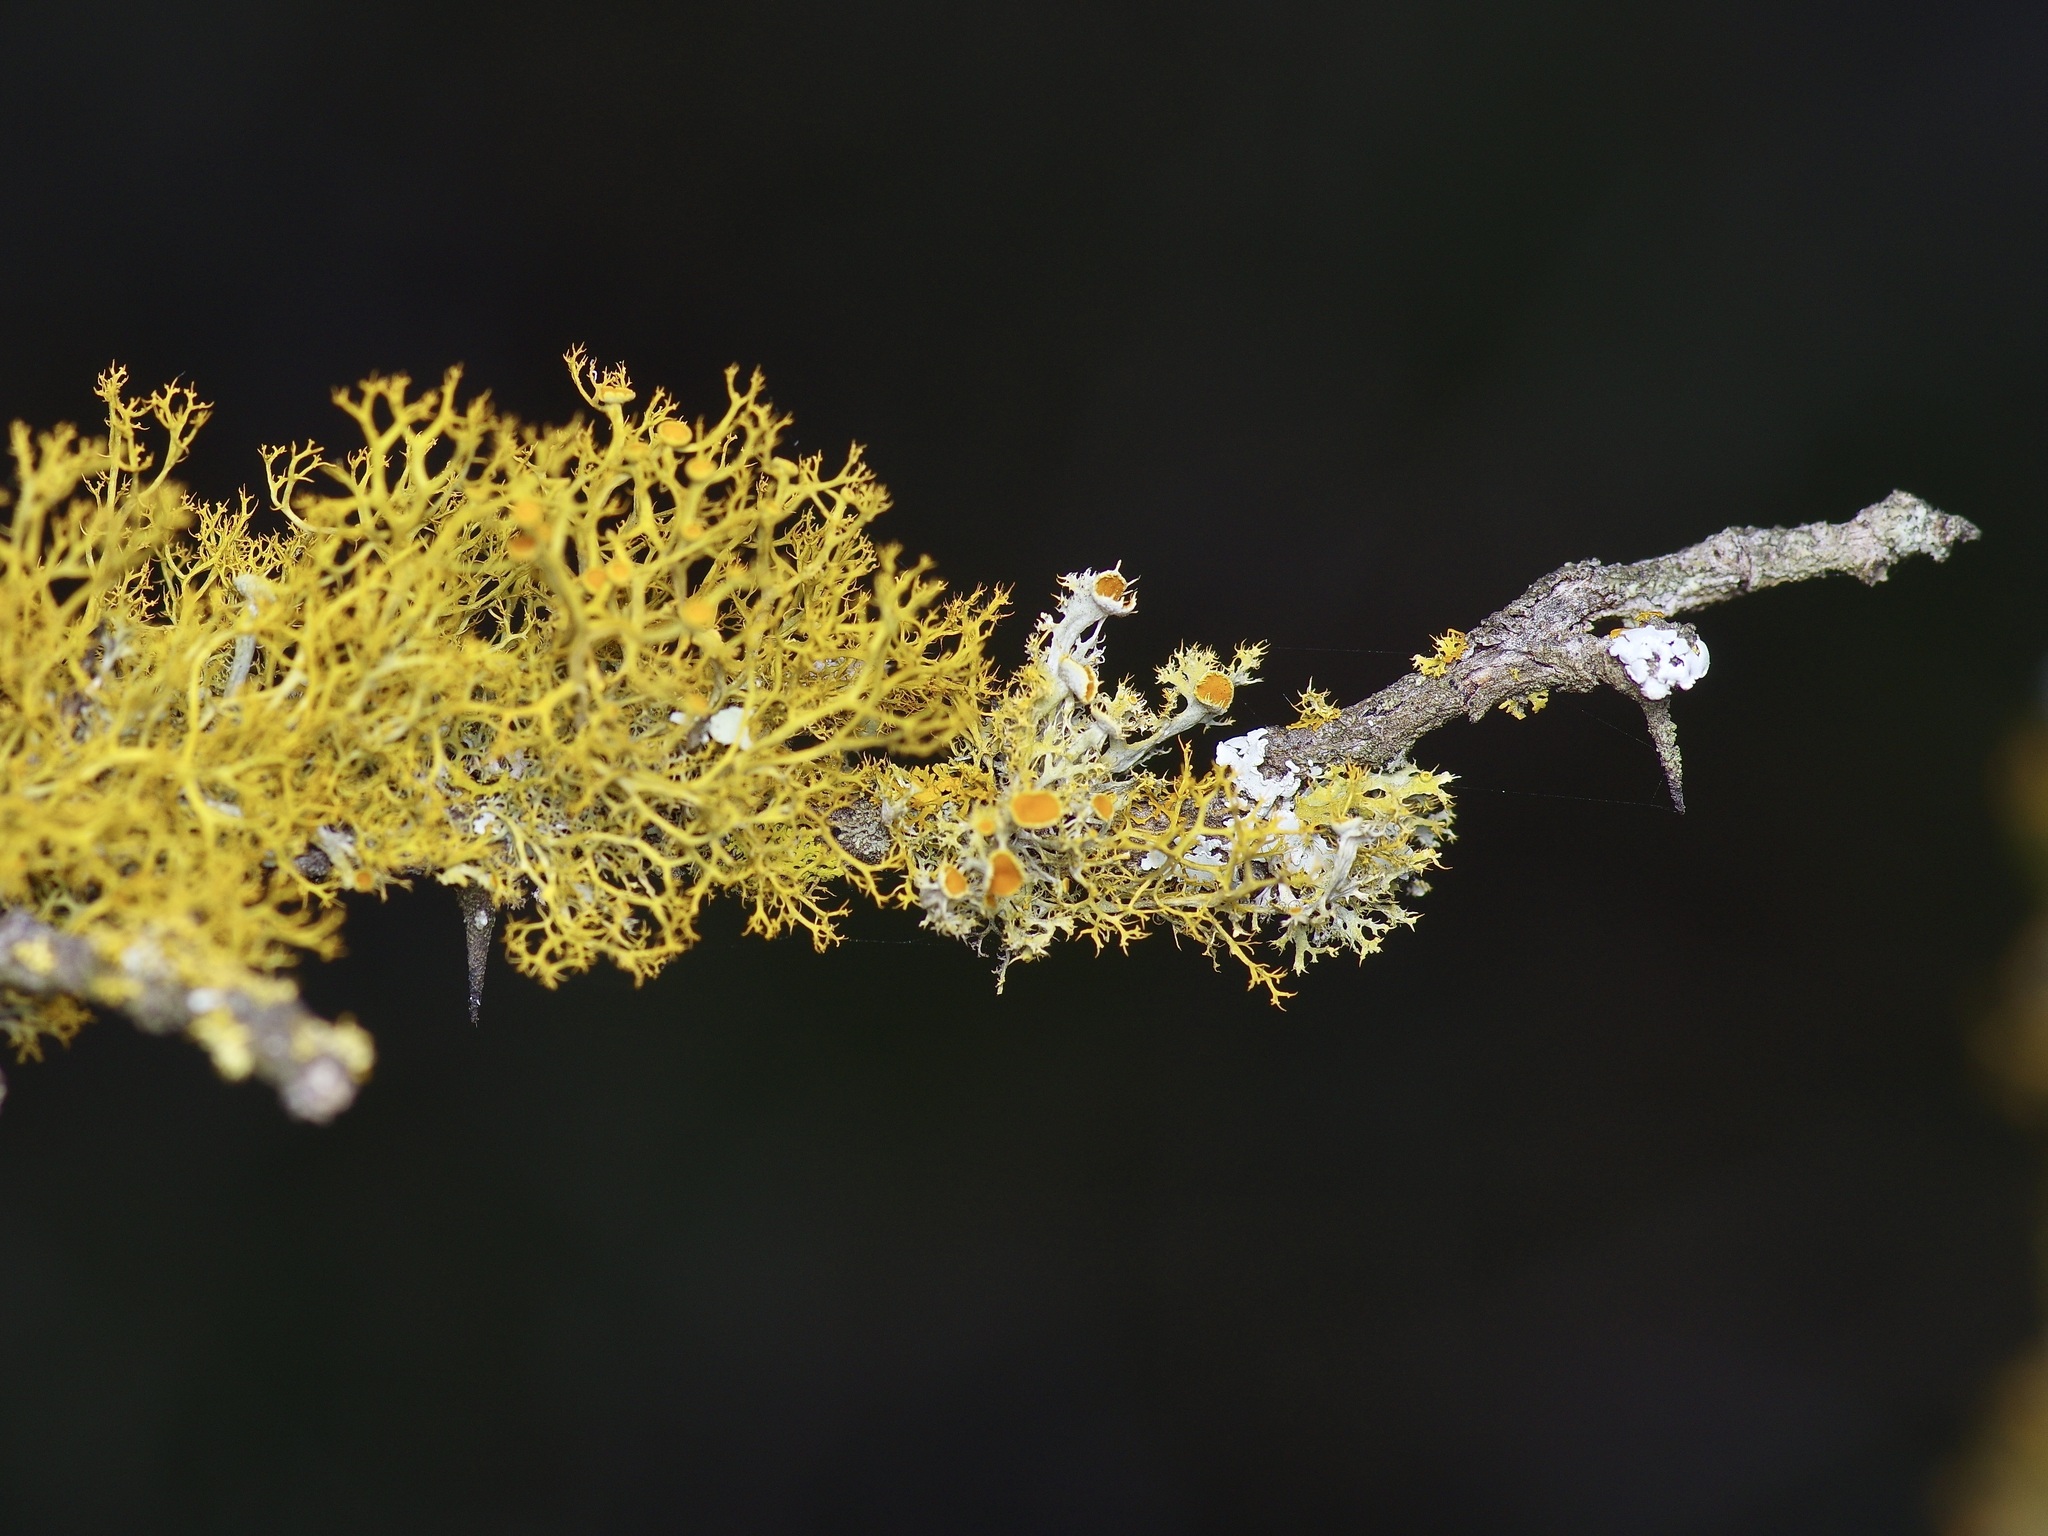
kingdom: Fungi
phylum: Ascomycota
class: Lecanoromycetes
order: Teloschistales
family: Teloschistaceae
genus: Niorma
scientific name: Niorma chrysophthalma
